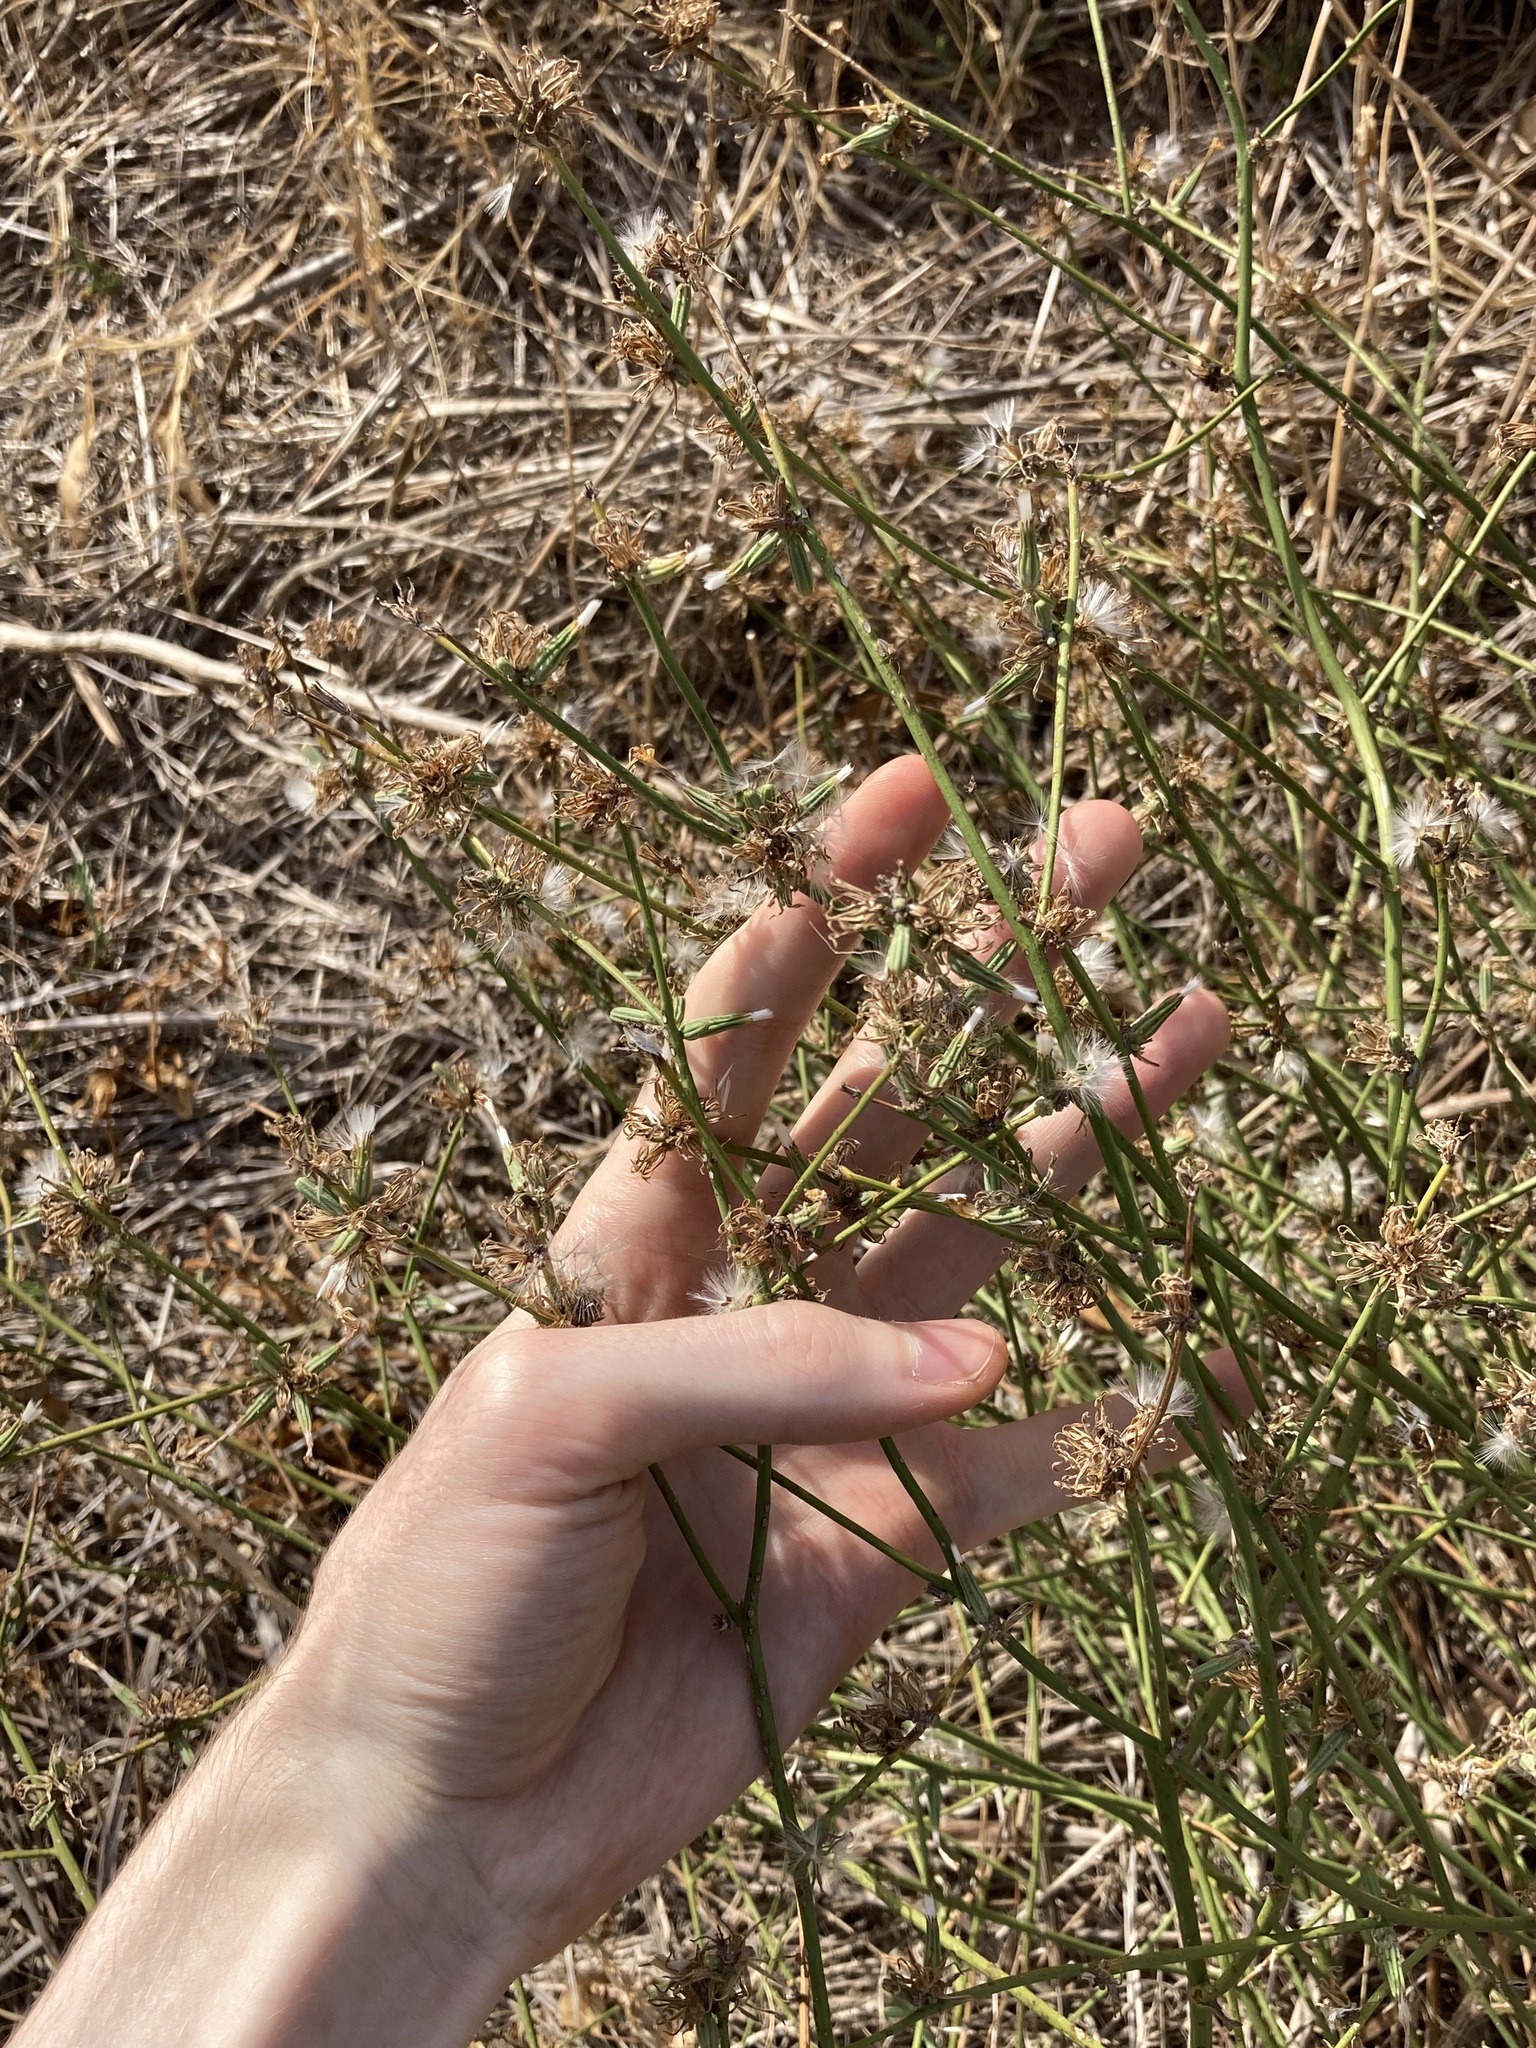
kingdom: Plantae
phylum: Tracheophyta
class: Magnoliopsida
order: Asterales
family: Asteraceae
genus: Chondrilla
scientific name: Chondrilla juncea
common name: Skeleton weed
